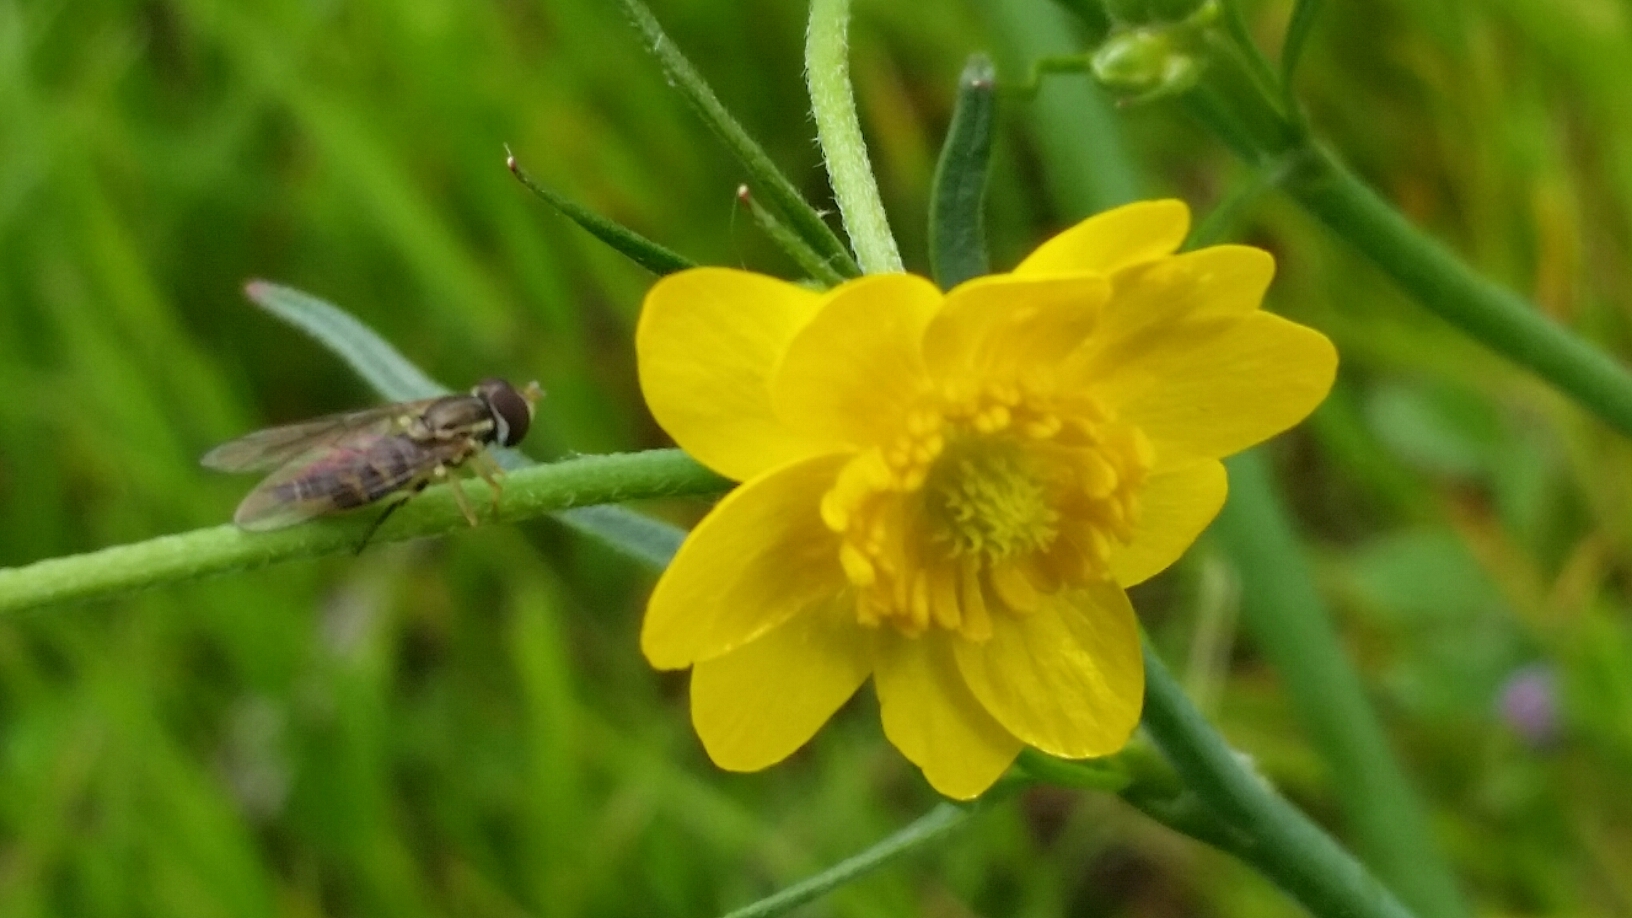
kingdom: Animalia
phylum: Arthropoda
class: Insecta
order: Diptera
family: Syrphidae
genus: Toxomerus
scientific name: Toxomerus occidentalis
